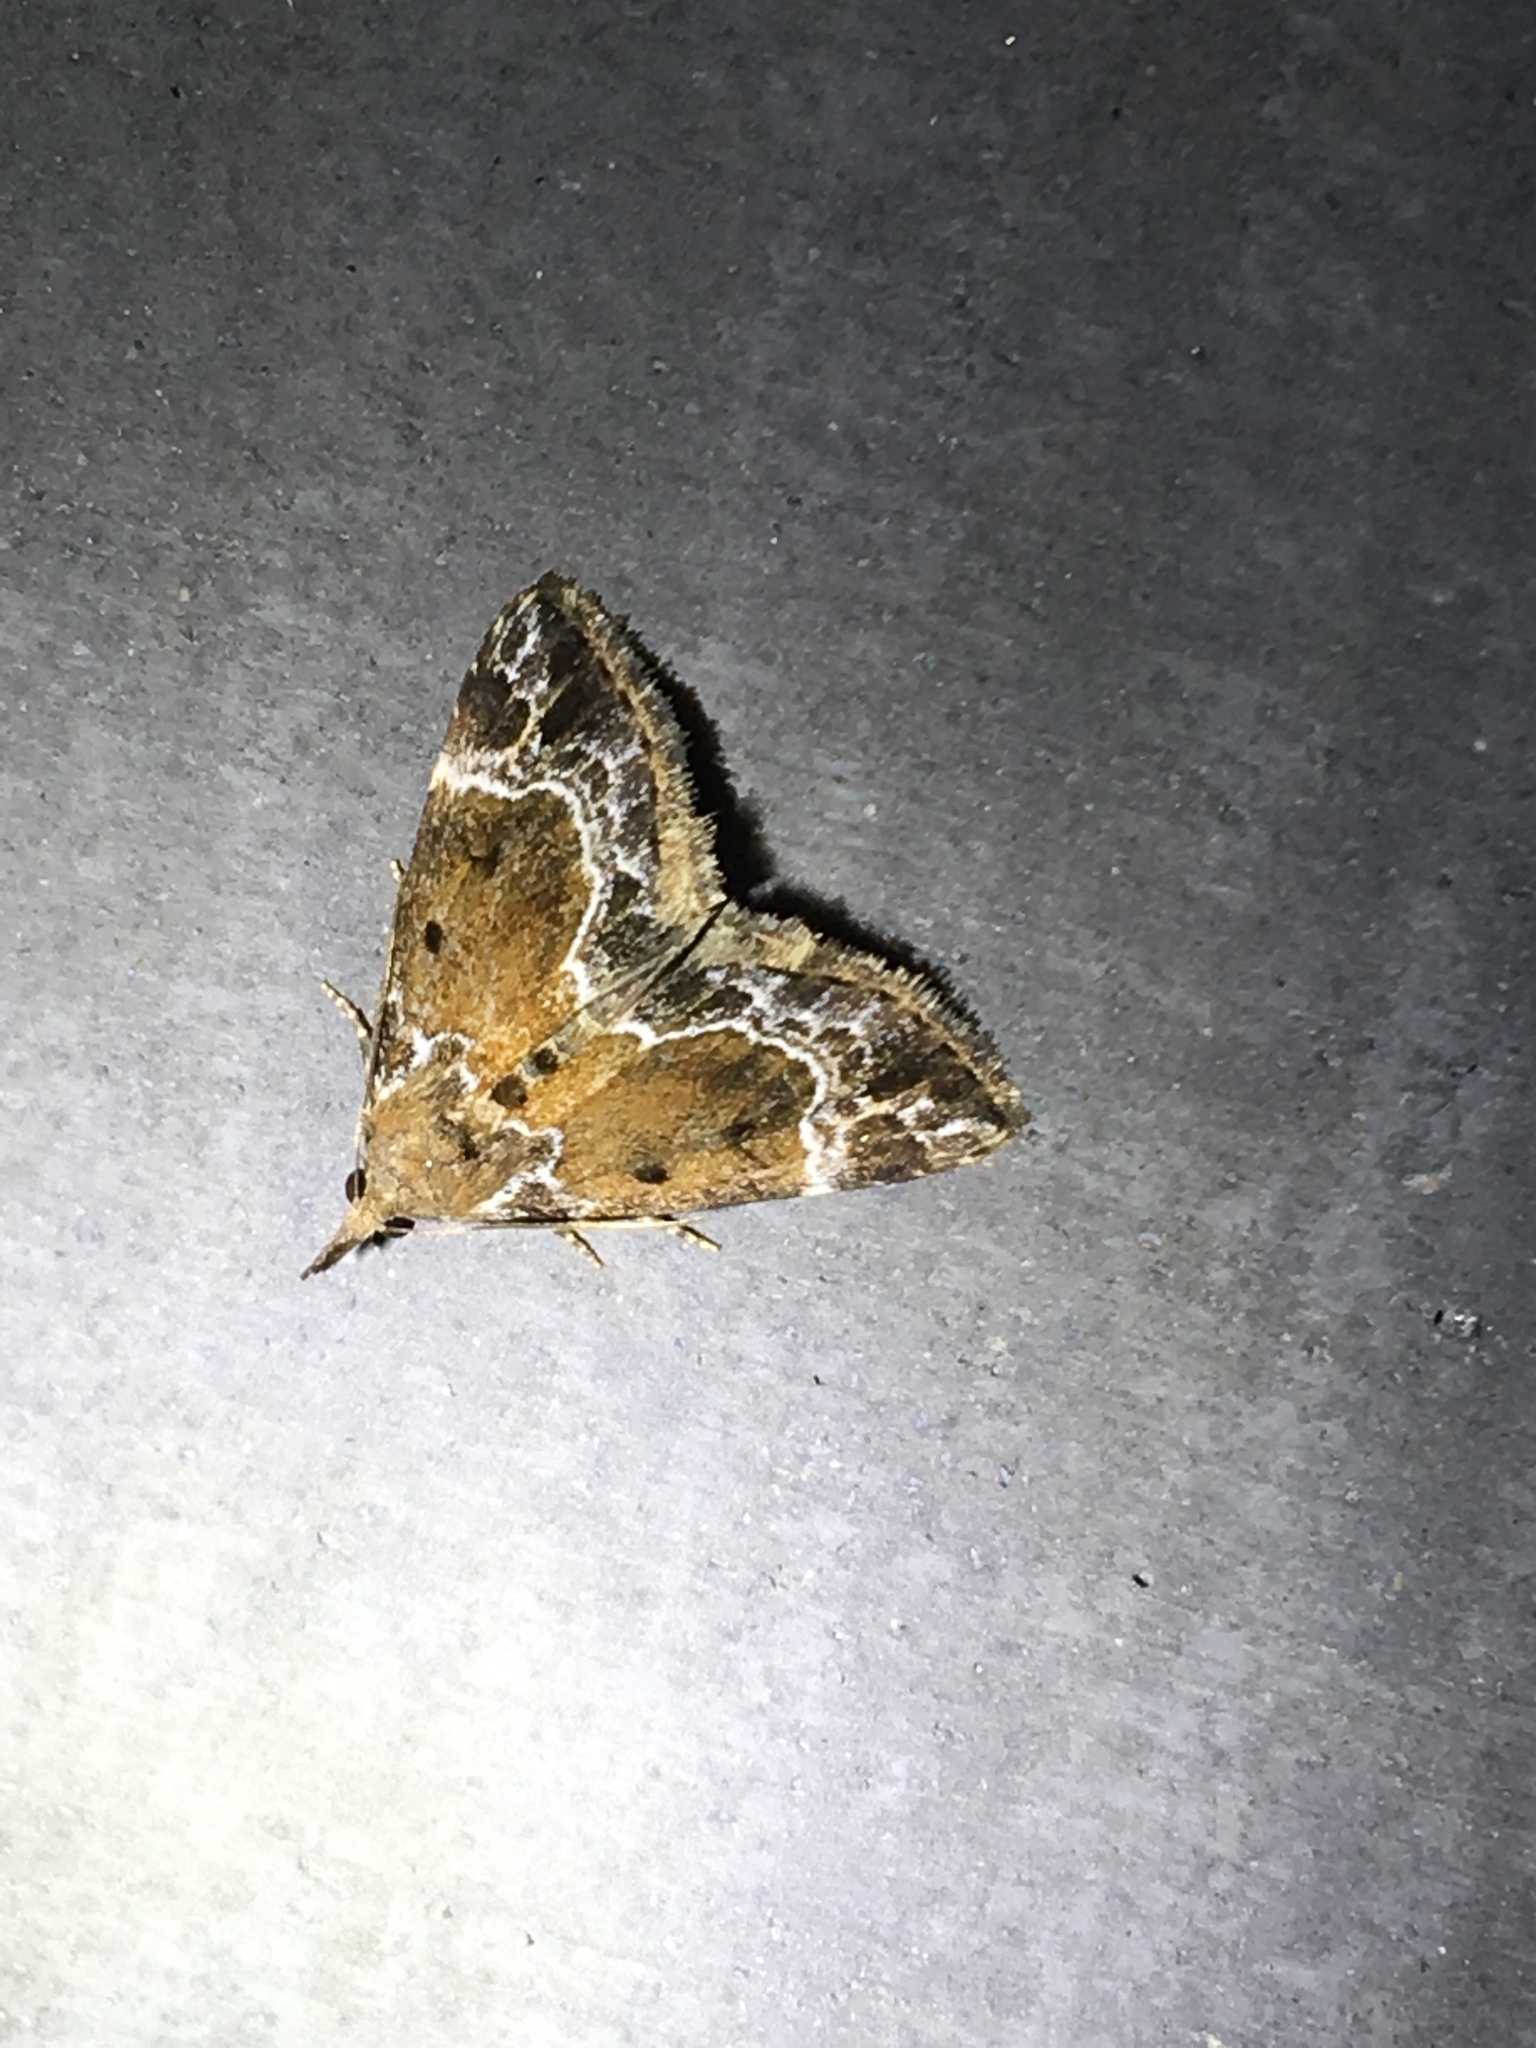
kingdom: Animalia
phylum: Arthropoda
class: Insecta
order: Lepidoptera
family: Erebidae
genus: Hypena
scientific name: Hypena abalienalis
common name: White-lined snout
